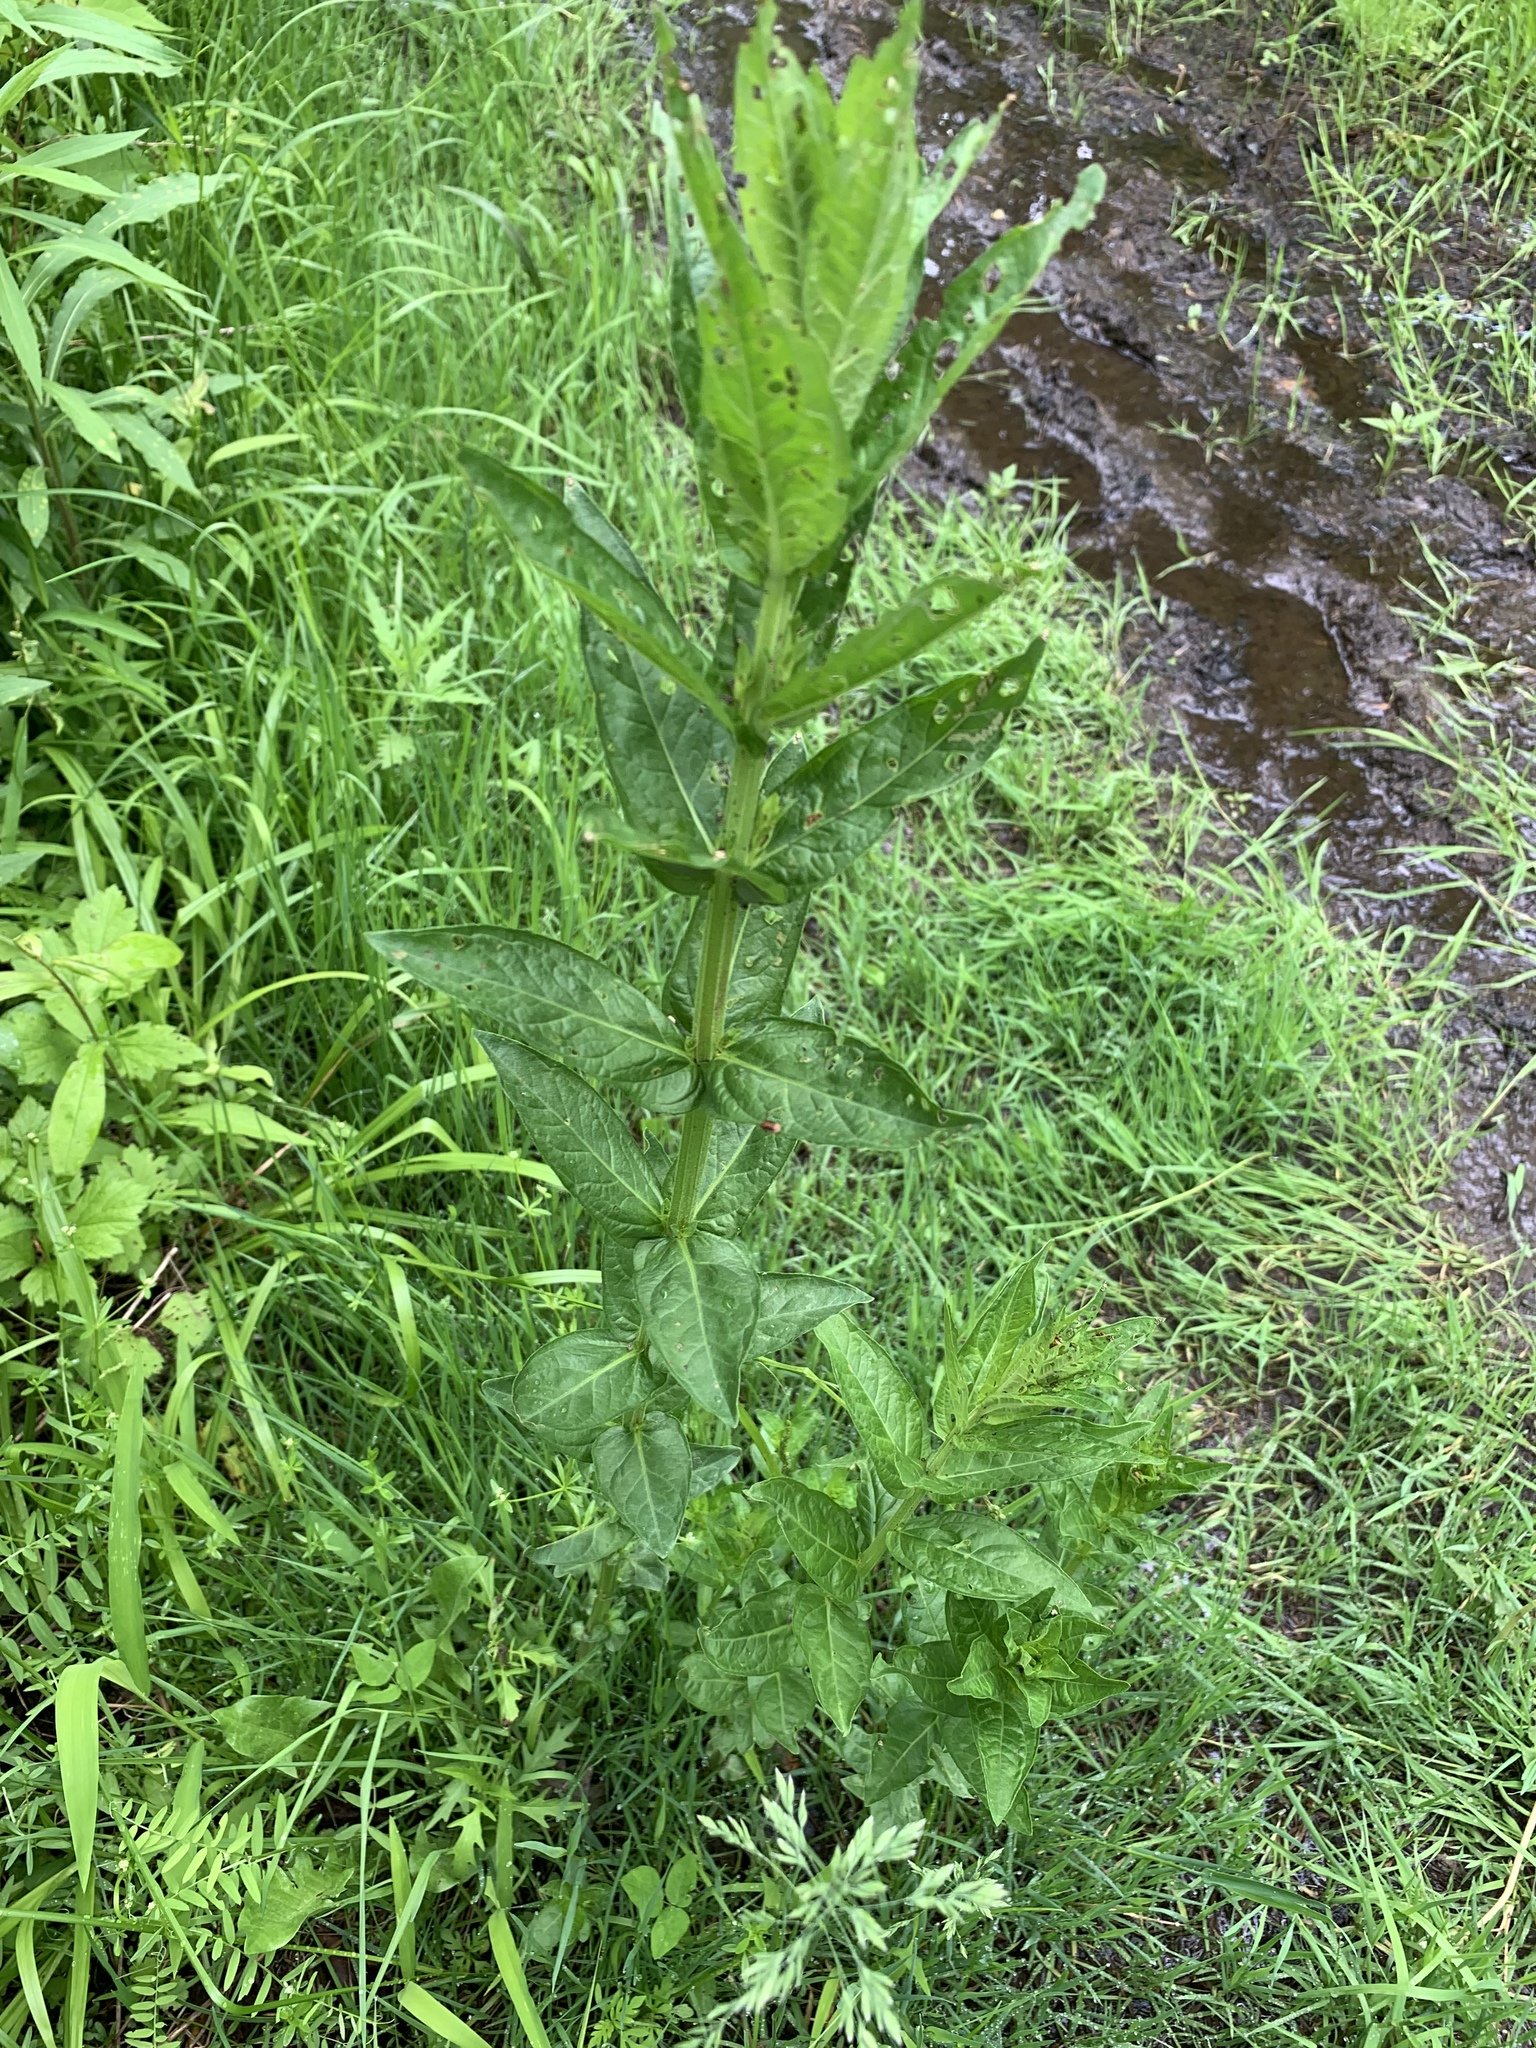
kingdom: Plantae
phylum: Tracheophyta
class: Magnoliopsida
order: Myrtales
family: Lythraceae
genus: Lythrum
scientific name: Lythrum salicaria
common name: Purple loosestrife
